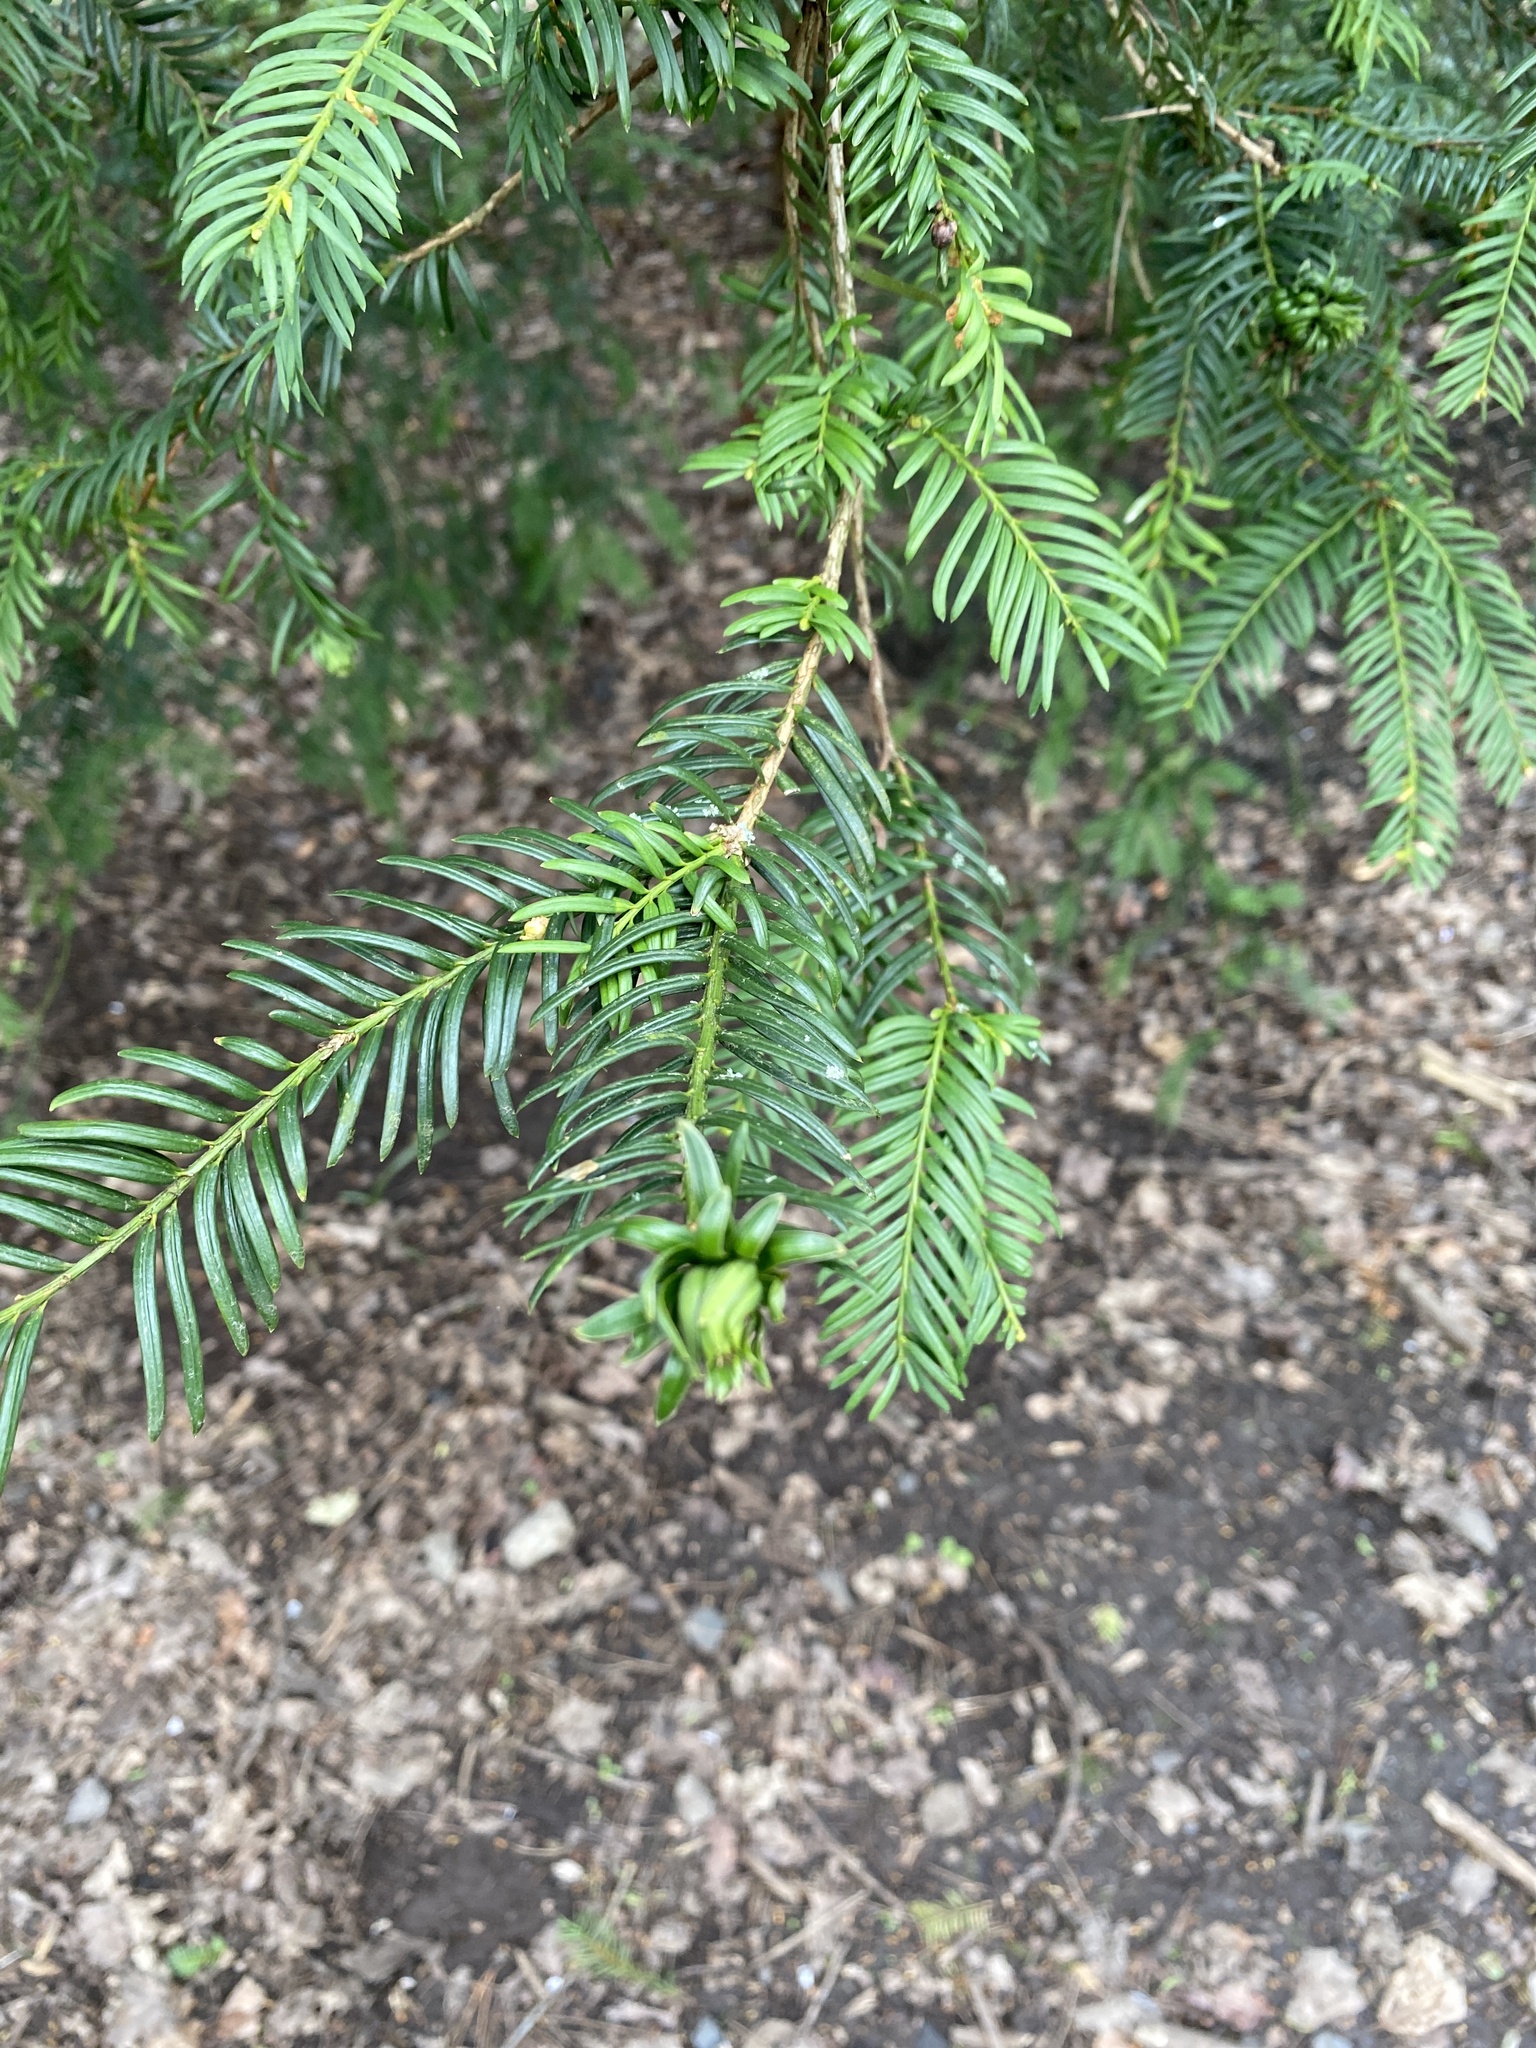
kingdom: Plantae
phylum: Tracheophyta
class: Pinopsida
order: Pinales
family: Taxaceae
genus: Taxus
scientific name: Taxus baccata
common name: Yew
